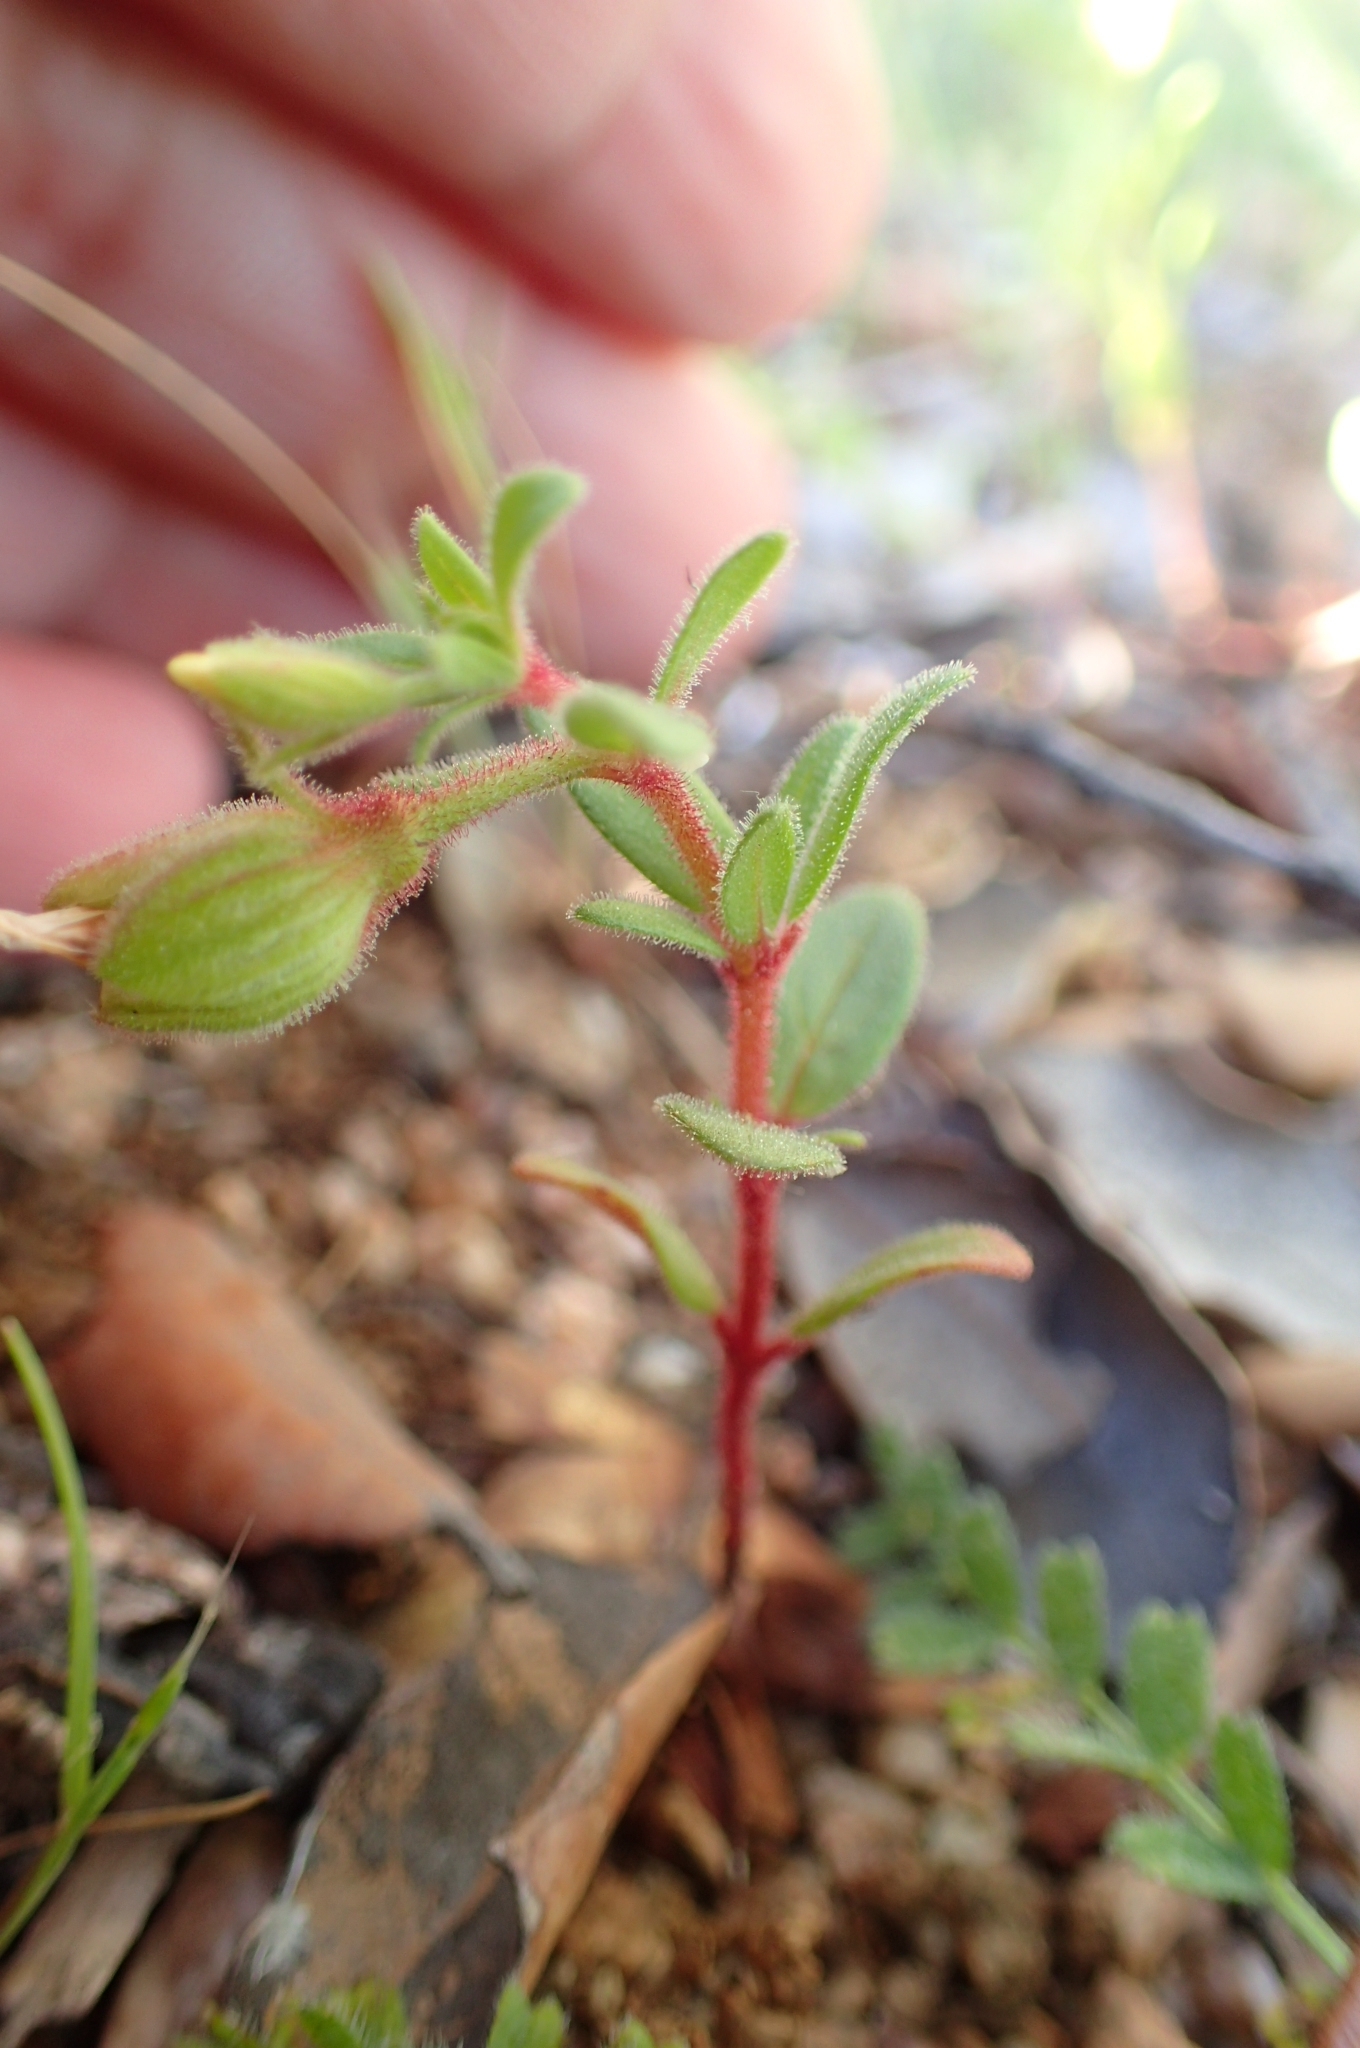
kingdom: Plantae
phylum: Tracheophyta
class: Magnoliopsida
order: Malvales
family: Cistaceae
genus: Helianthemum
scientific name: Helianthemum sanguineum
